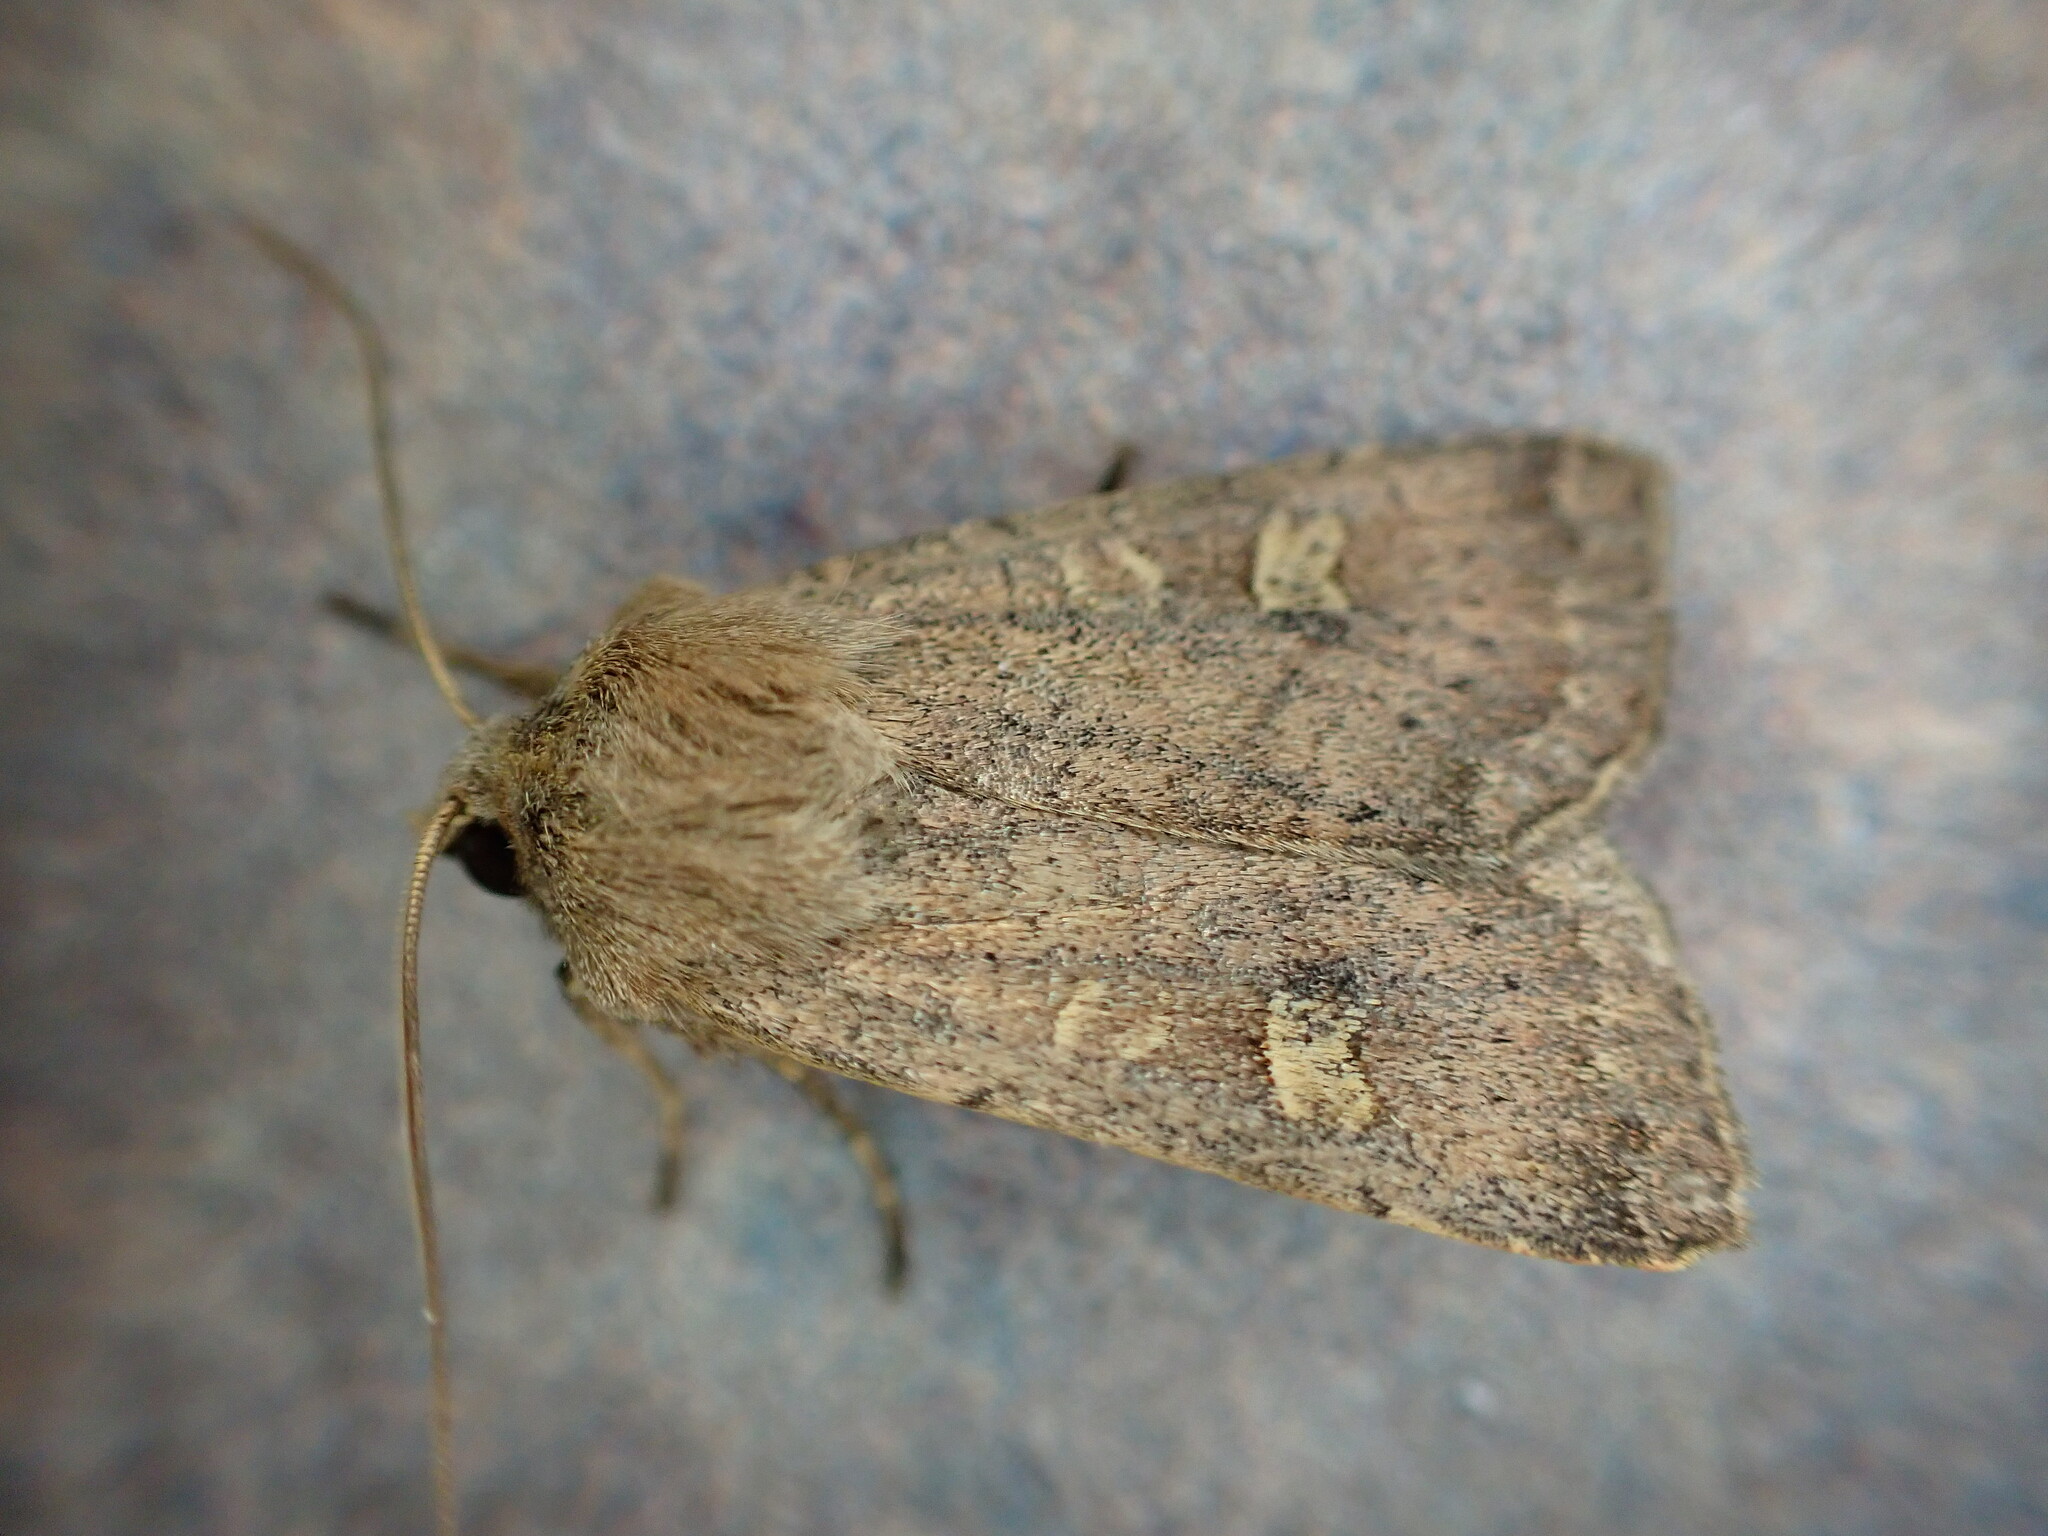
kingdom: Animalia
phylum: Arthropoda
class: Insecta
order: Lepidoptera
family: Noctuidae
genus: Xestia
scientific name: Xestia xanthographa
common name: Square-spot rustic
